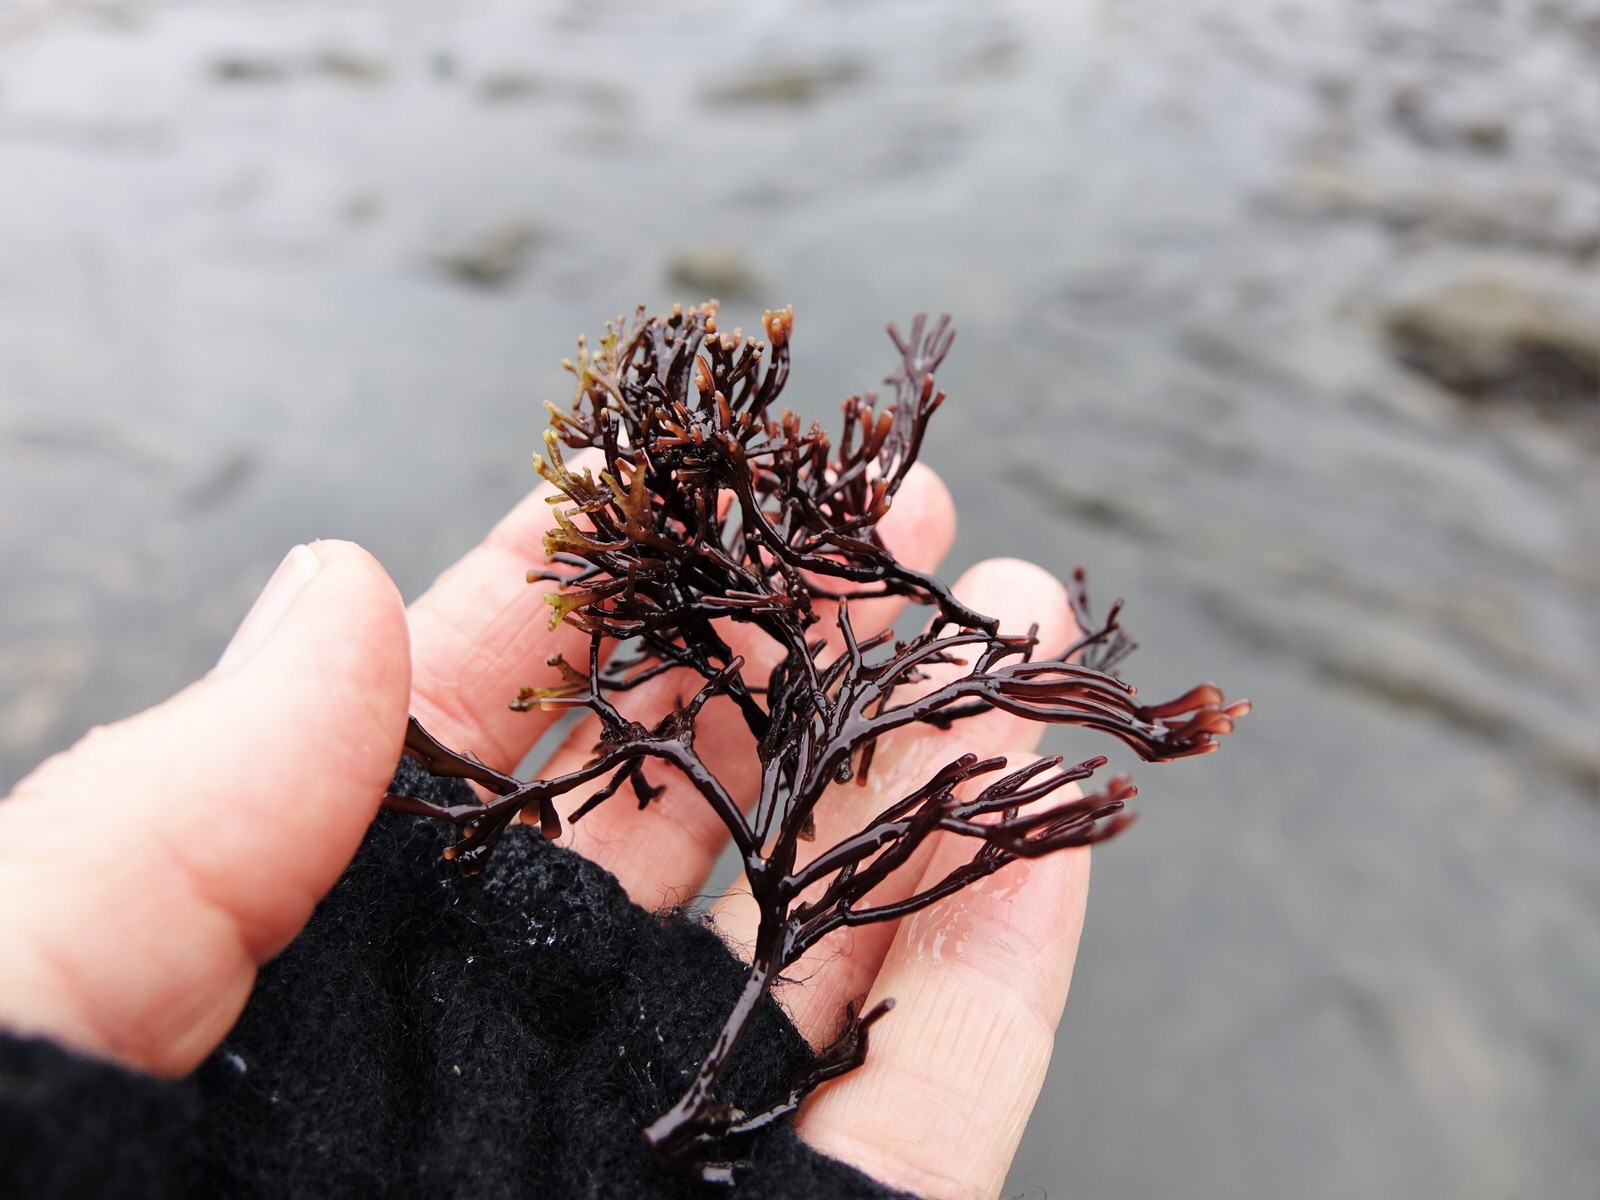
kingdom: Plantae
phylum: Rhodophyta
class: Florideophyceae
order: Gracilariales
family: Gracilariaceae
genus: Melanthalia
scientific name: Melanthalia abscissa
